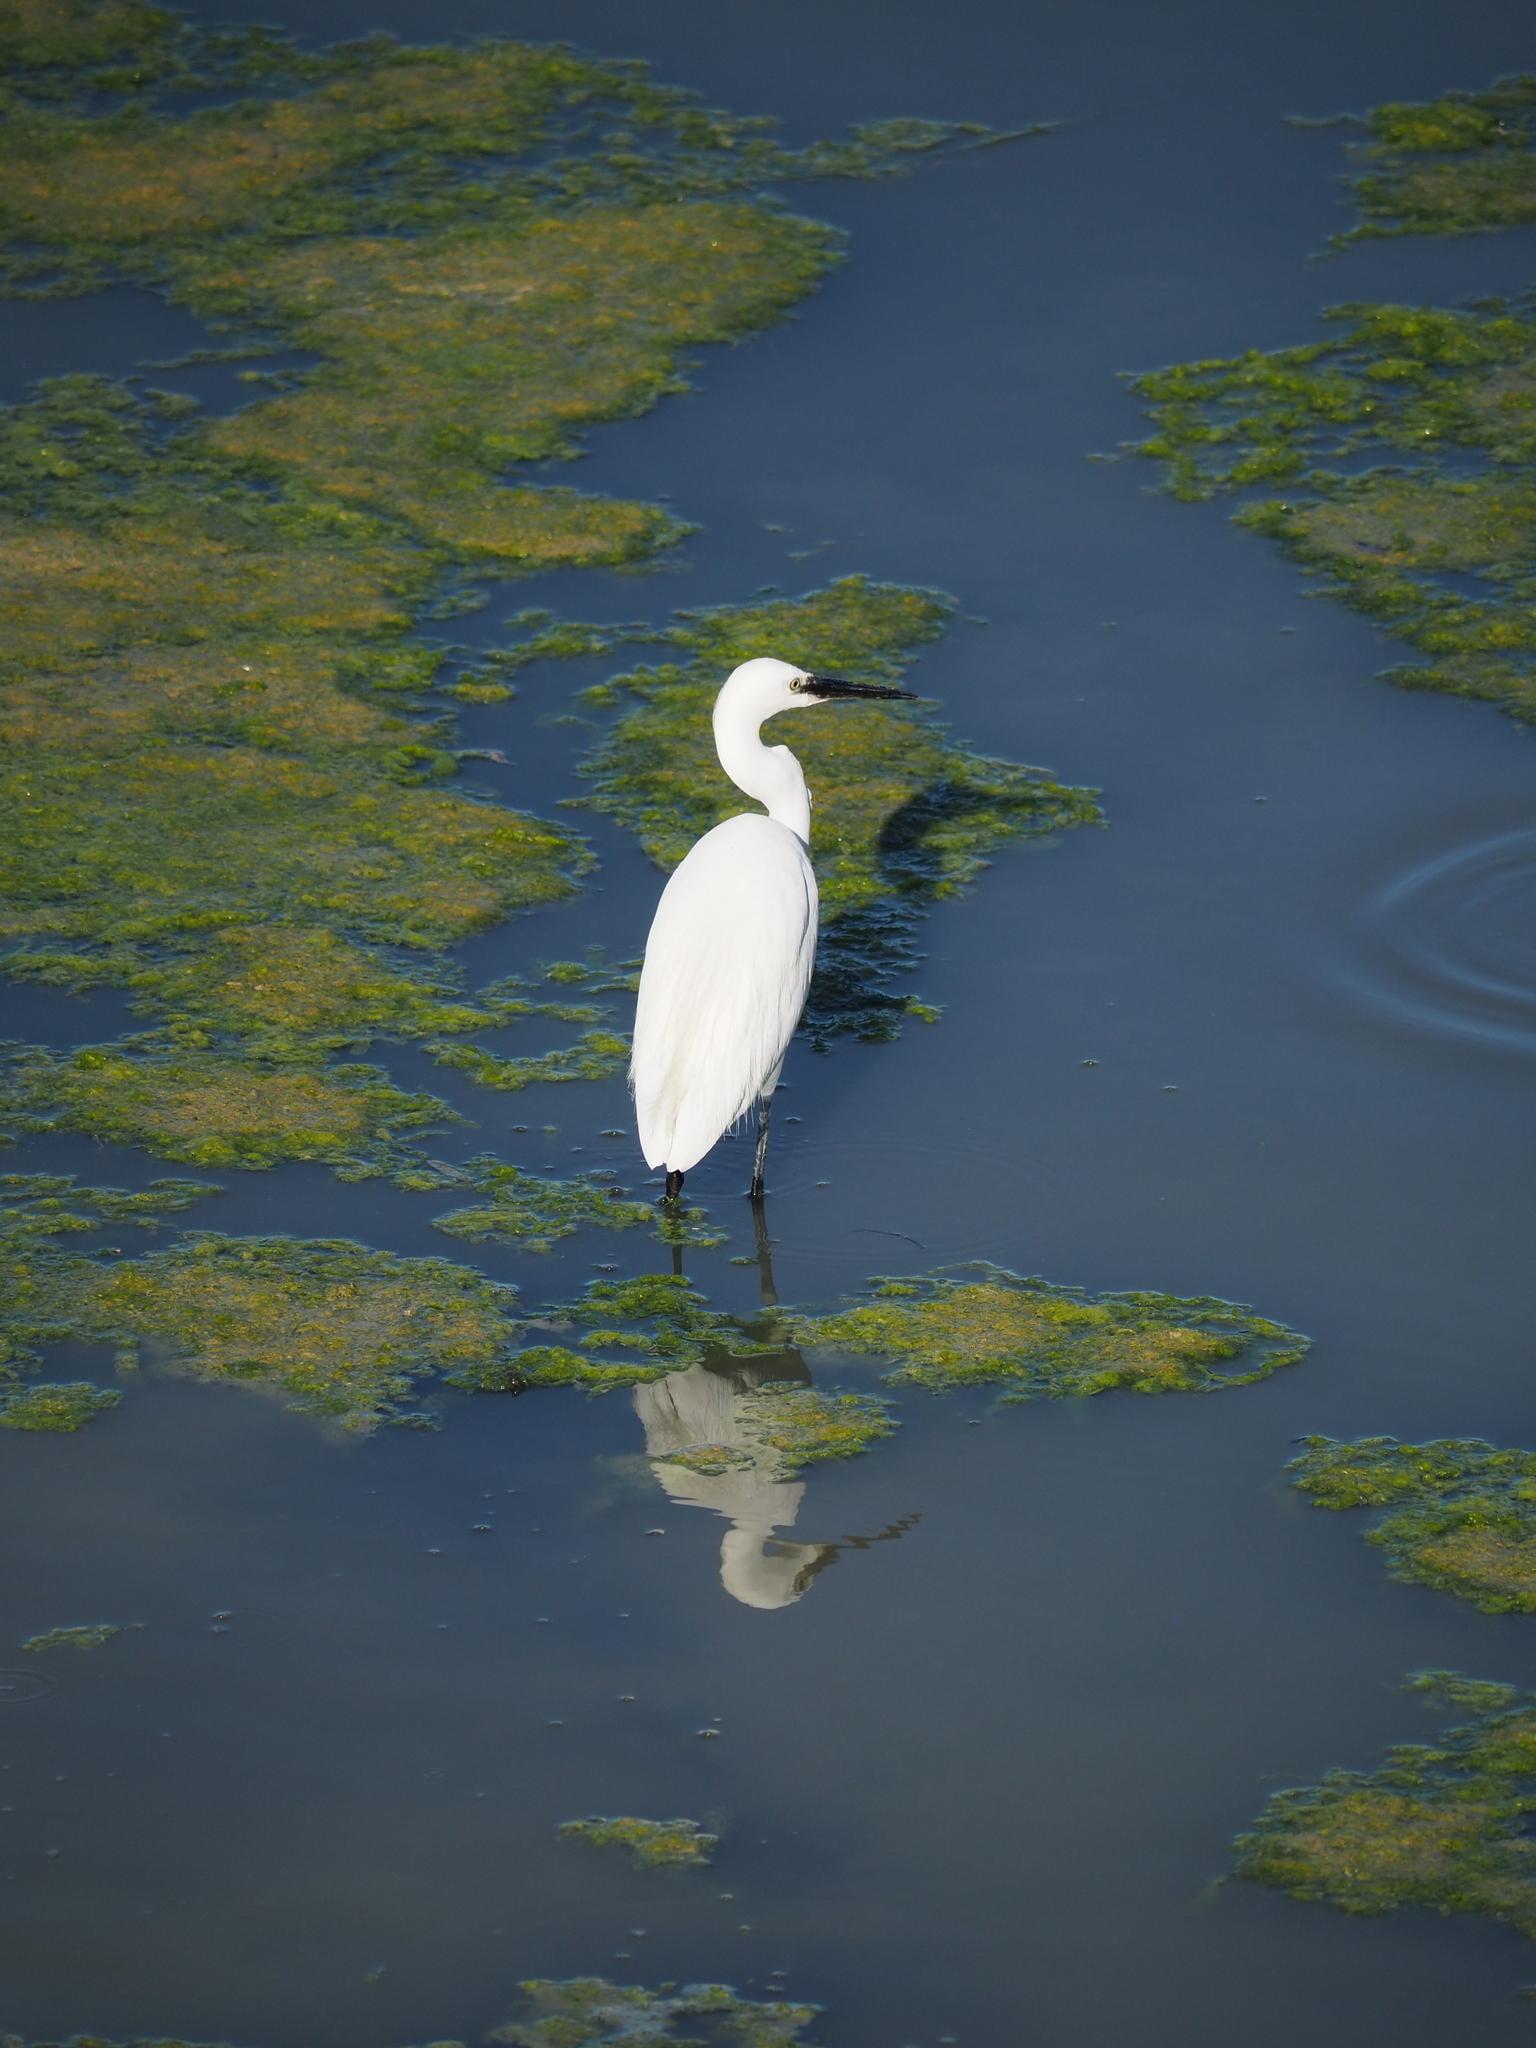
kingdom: Animalia
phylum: Chordata
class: Aves
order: Pelecaniformes
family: Ardeidae
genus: Egretta
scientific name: Egretta garzetta
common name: Little egret
